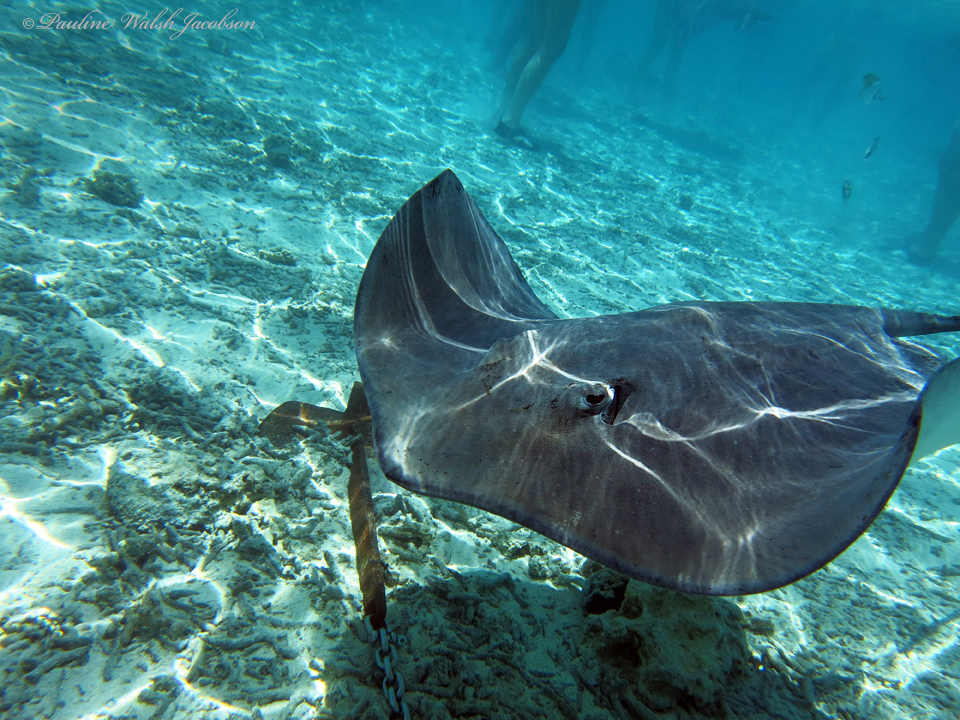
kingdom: Animalia
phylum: Chordata
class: Elasmobranchii
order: Myliobatiformes
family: Dasyatidae
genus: Pateobatis
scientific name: Pateobatis fai
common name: Pink whipray
